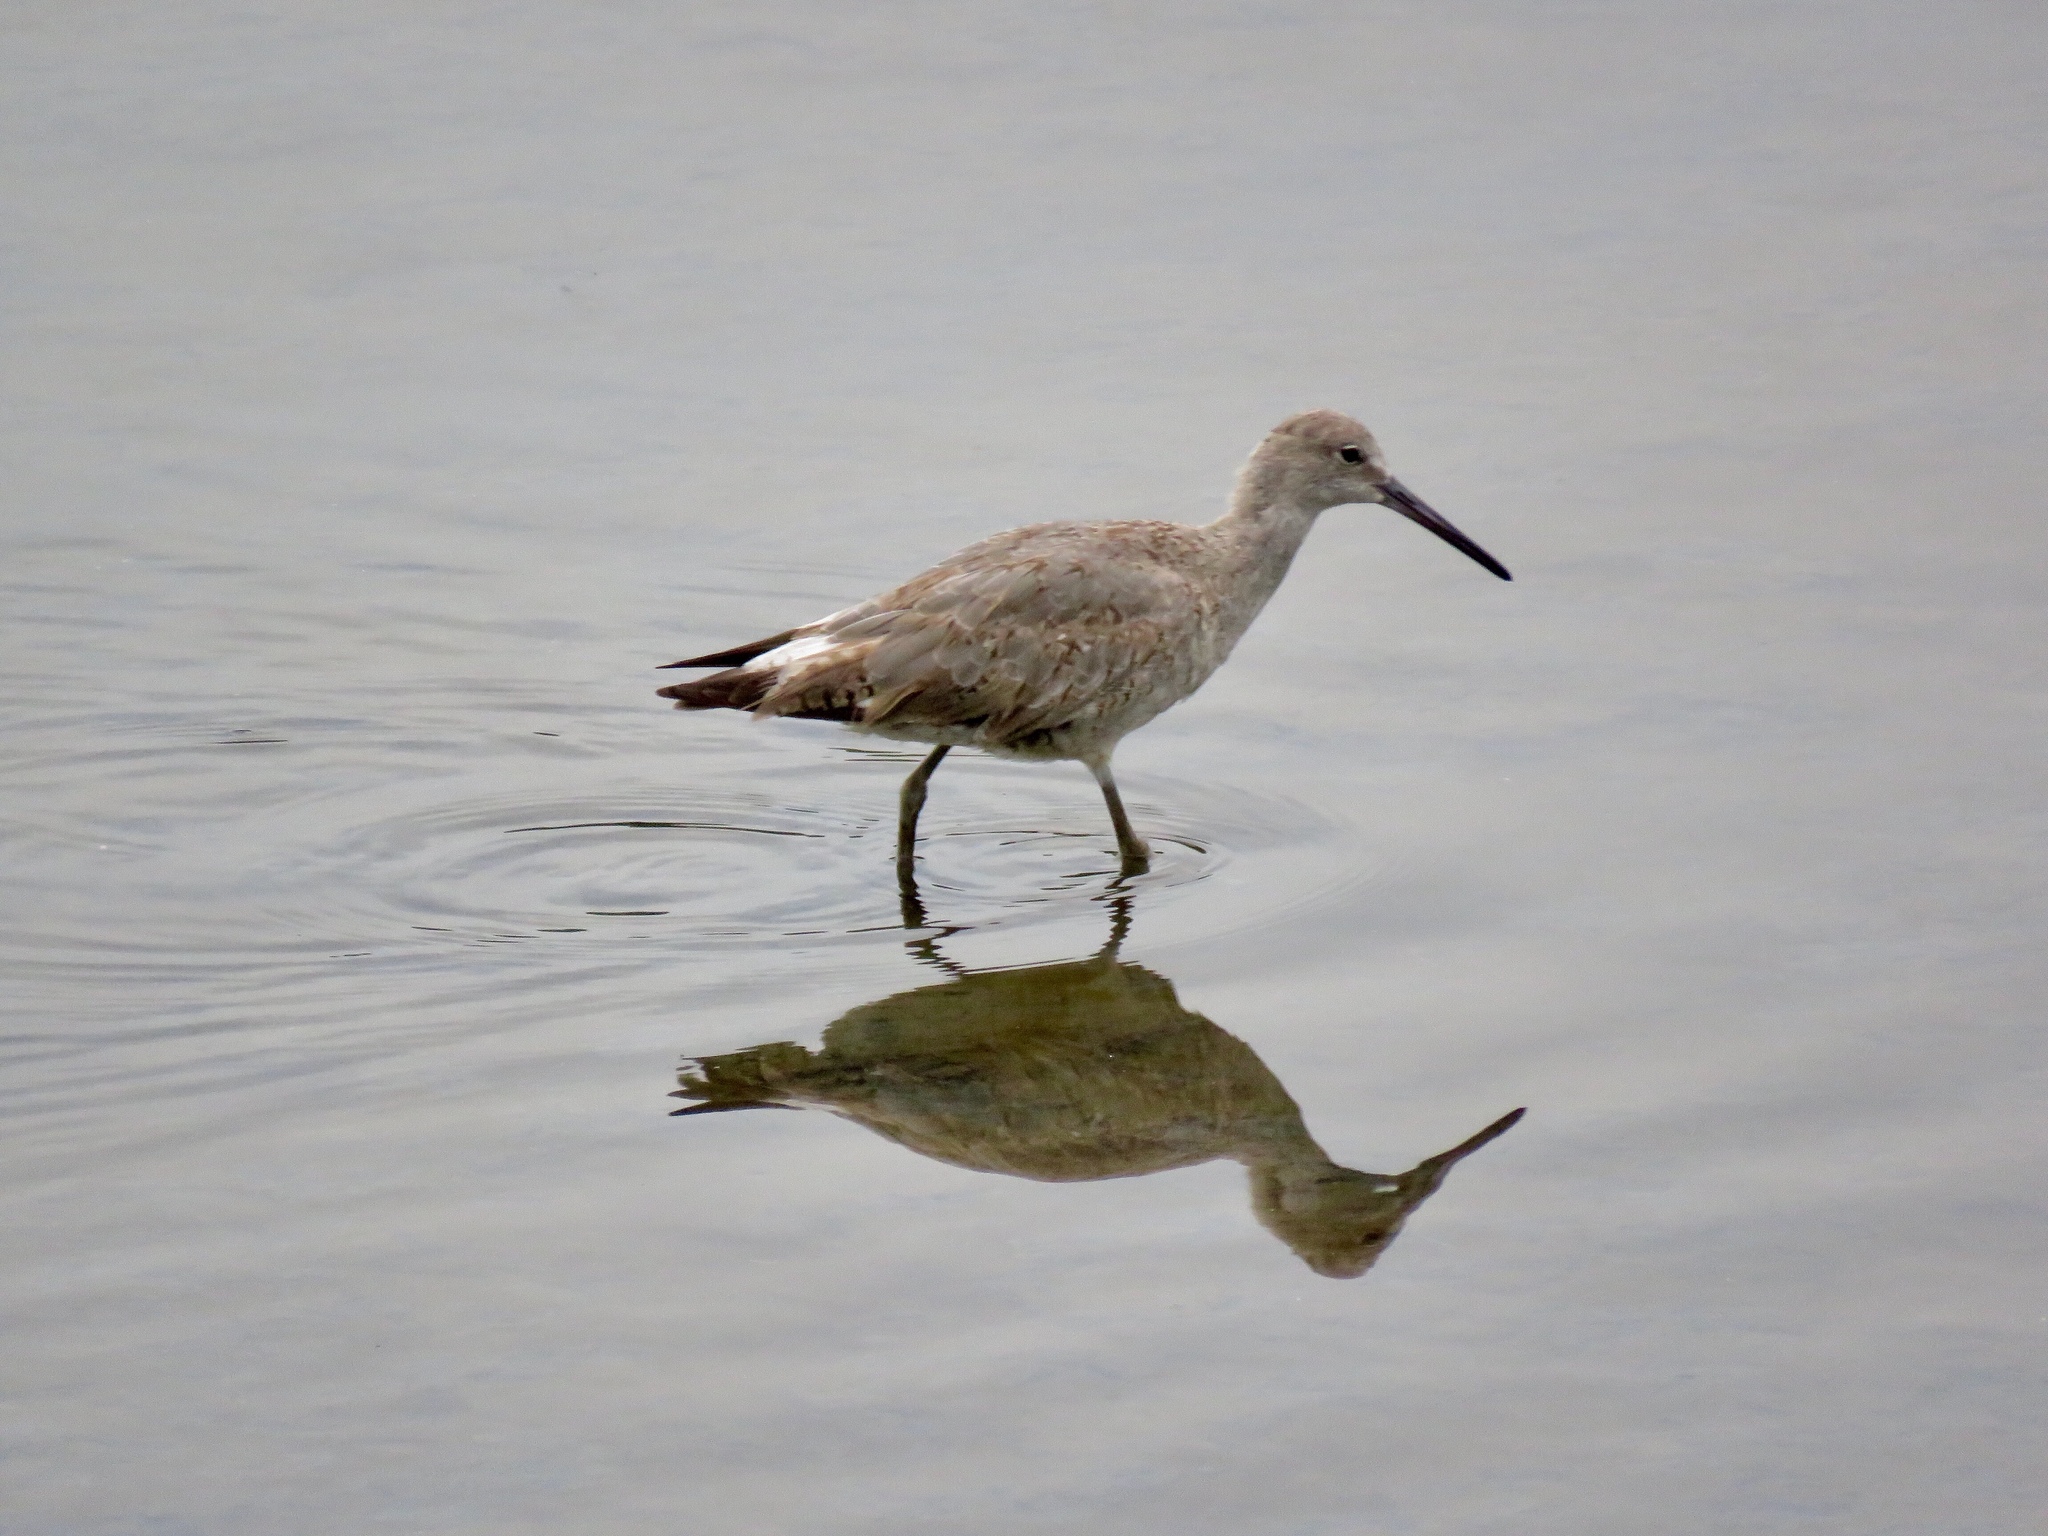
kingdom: Animalia
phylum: Chordata
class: Aves
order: Charadriiformes
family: Scolopacidae
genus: Tringa
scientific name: Tringa semipalmata
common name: Willet
